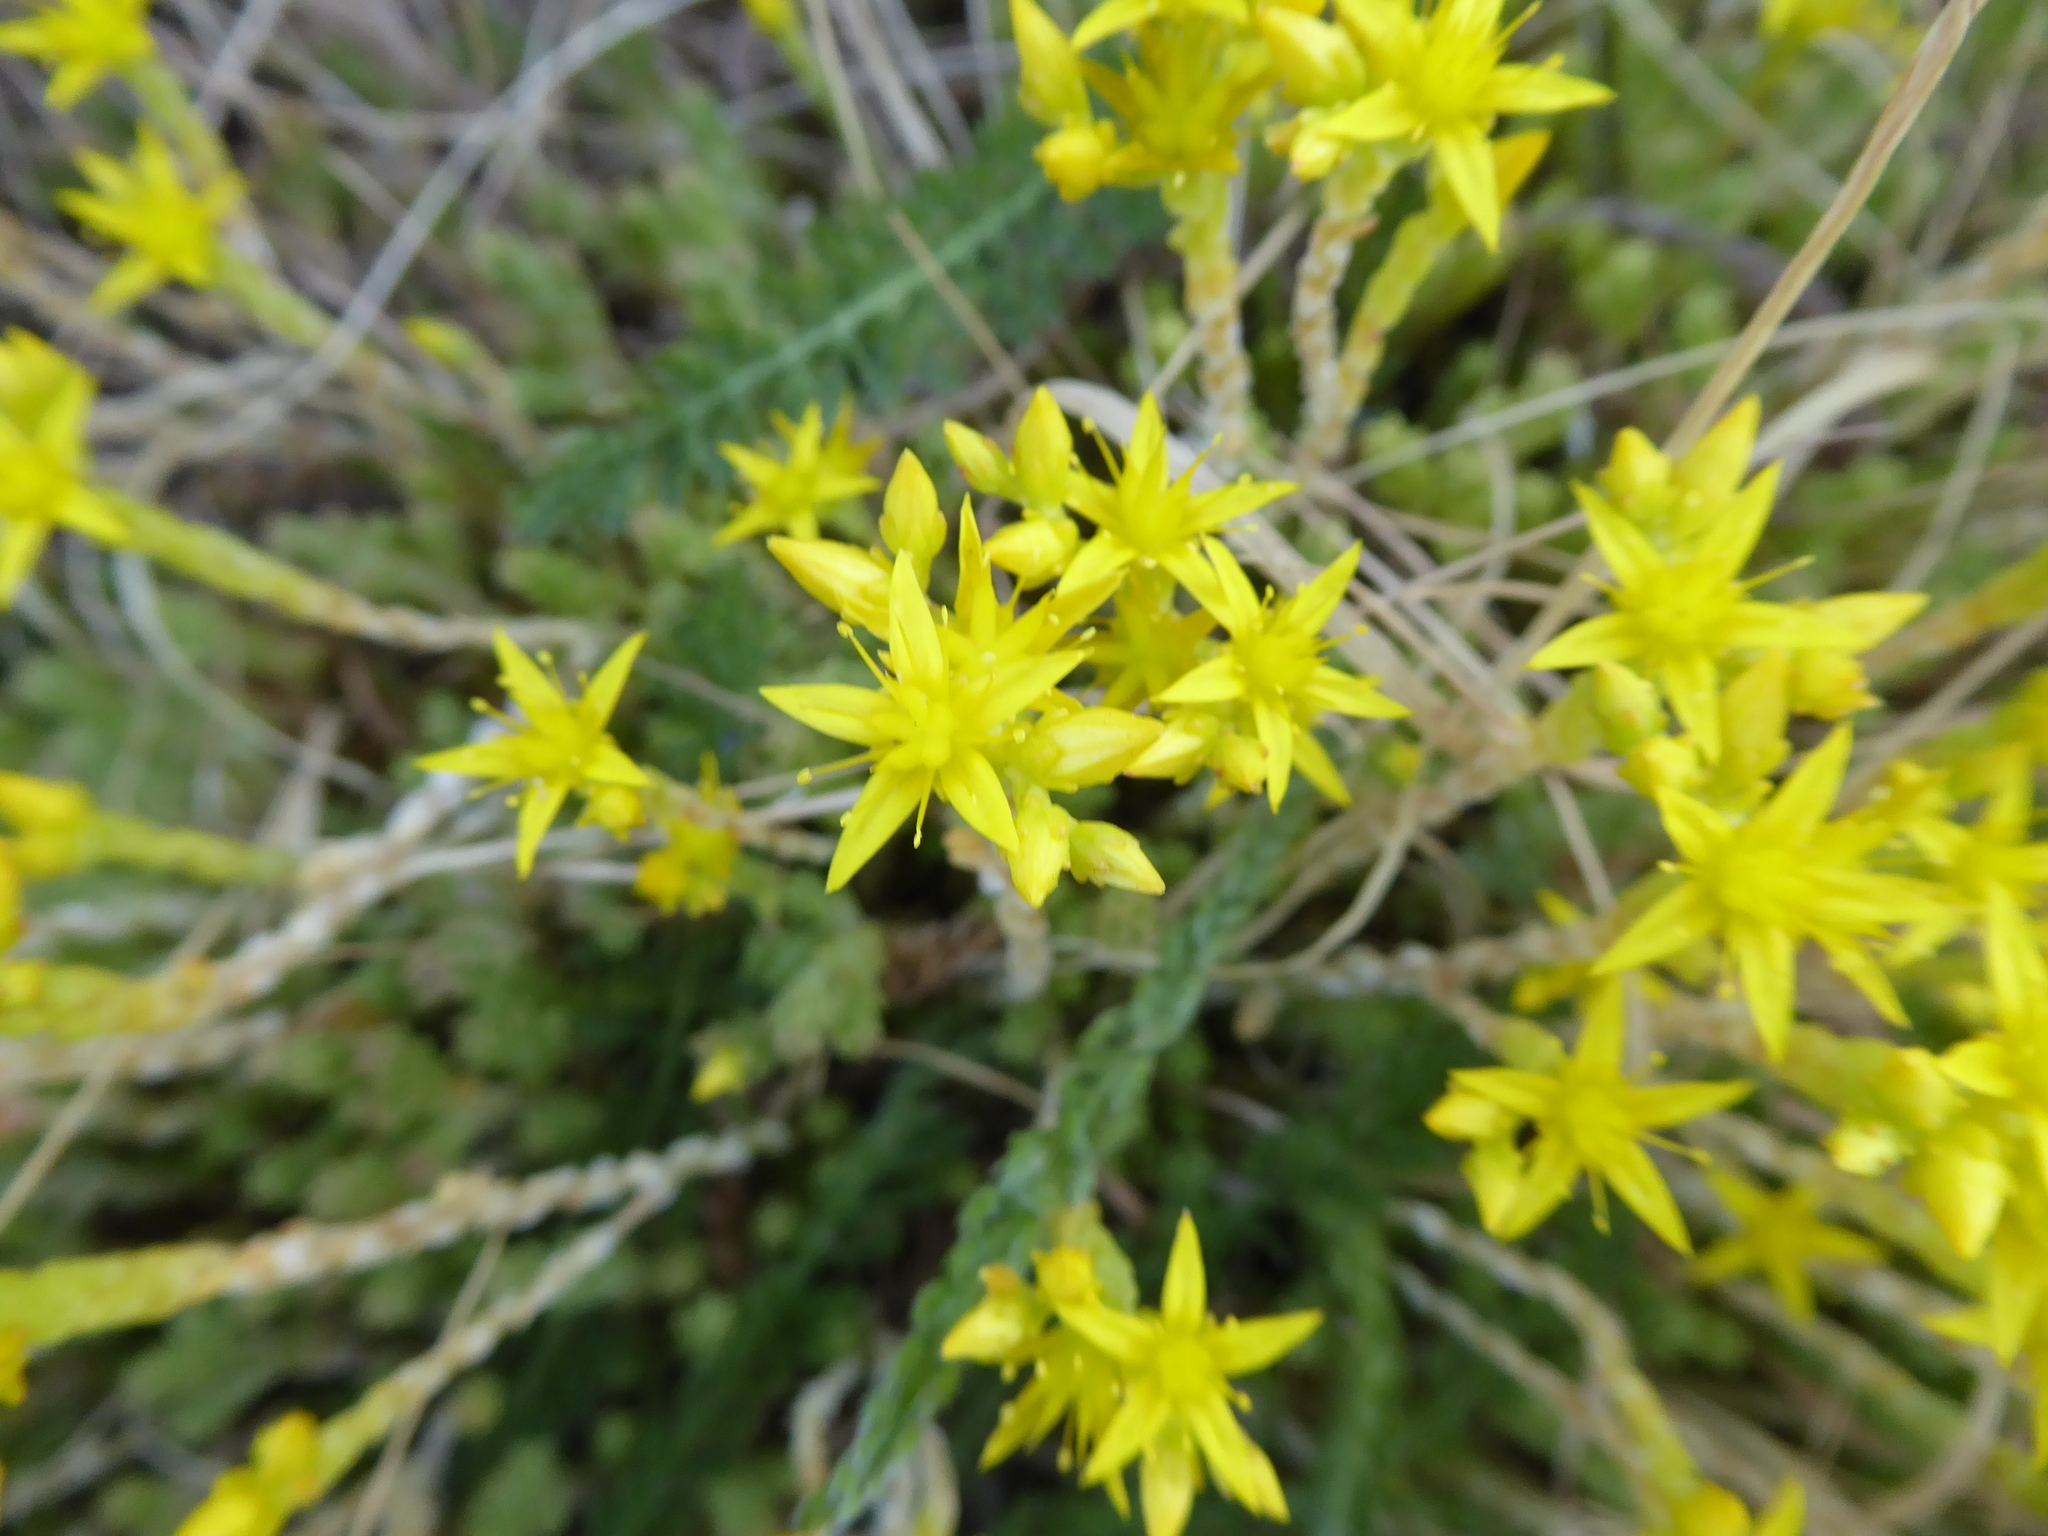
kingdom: Plantae
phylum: Tracheophyta
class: Magnoliopsida
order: Saxifragales
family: Crassulaceae
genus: Sedum
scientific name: Sedum acre
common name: Biting stonecrop
